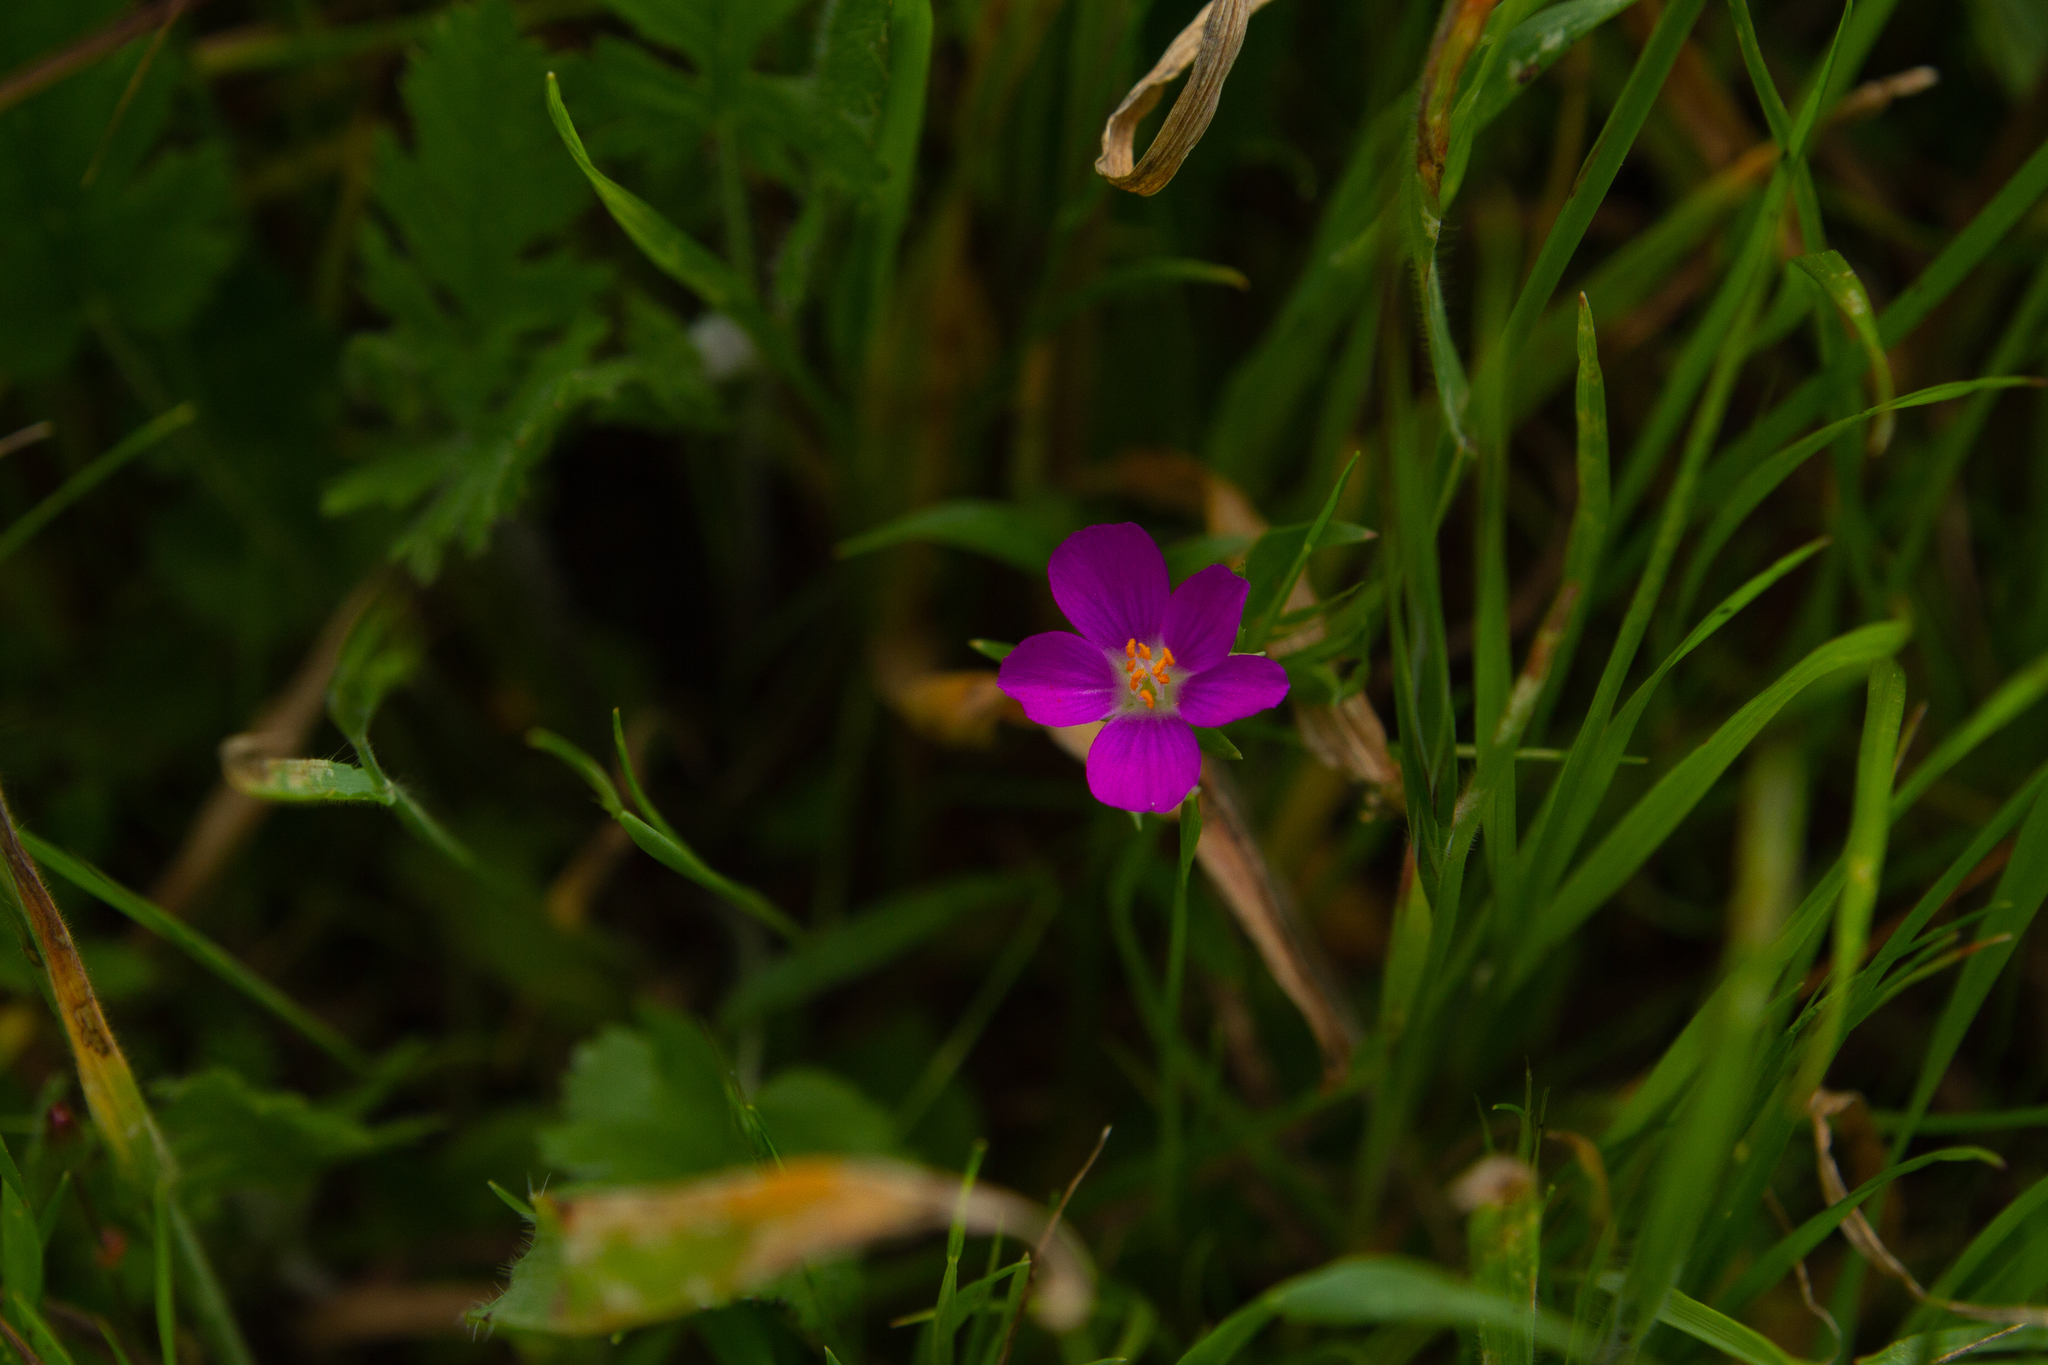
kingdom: Plantae
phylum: Tracheophyta
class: Magnoliopsida
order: Caryophyllales
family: Montiaceae
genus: Calandrinia
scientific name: Calandrinia menziesii
